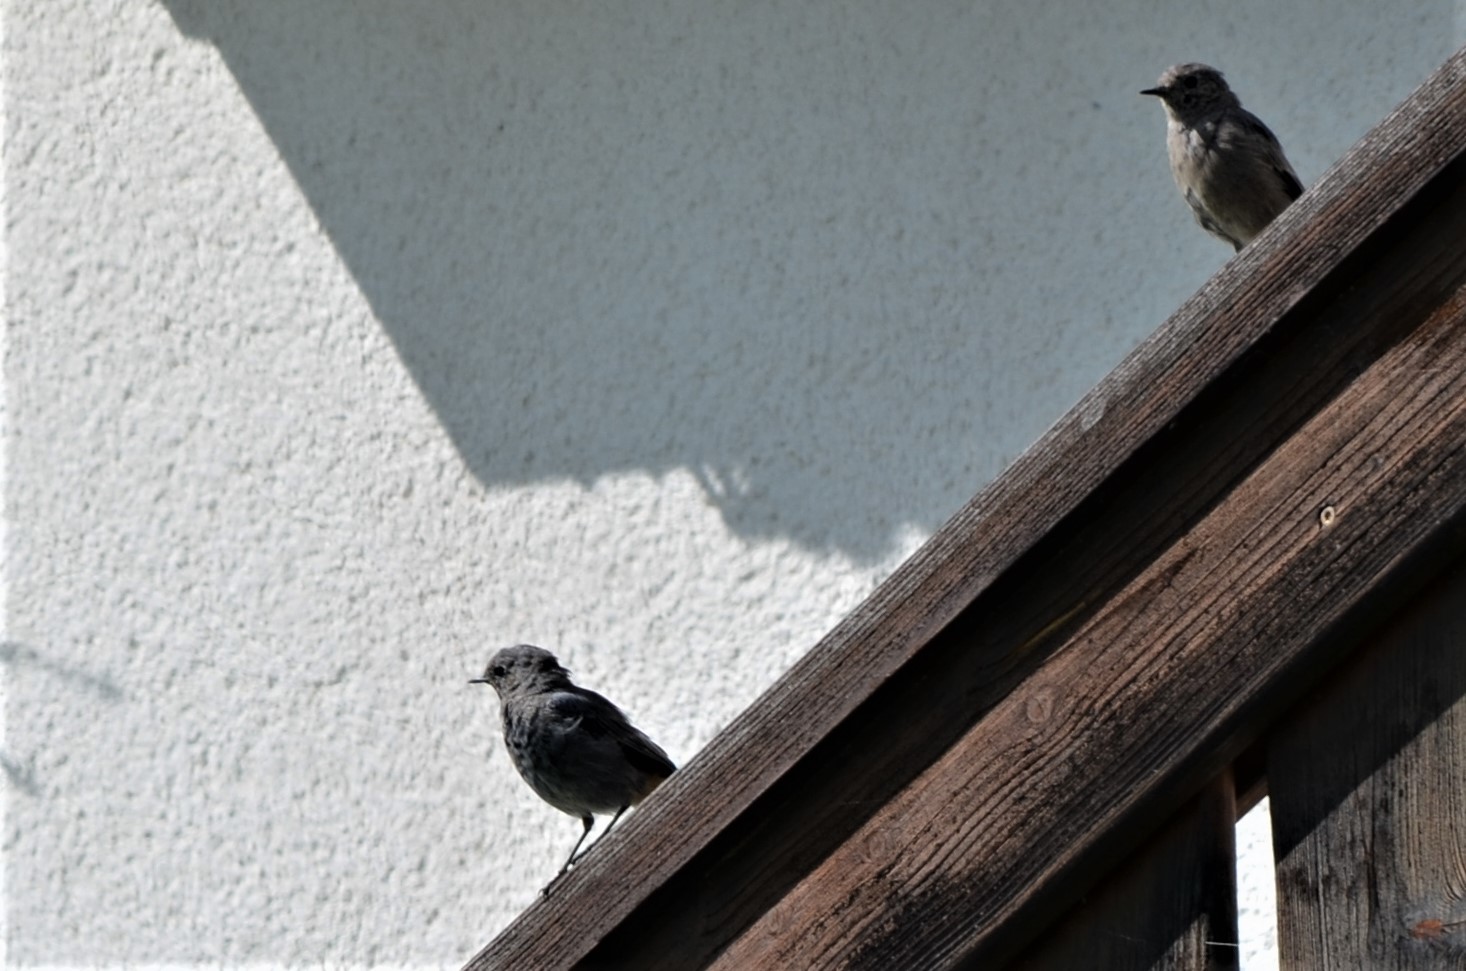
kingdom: Animalia
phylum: Chordata
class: Aves
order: Passeriformes
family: Muscicapidae
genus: Phoenicurus
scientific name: Phoenicurus ochruros
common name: Black redstart
